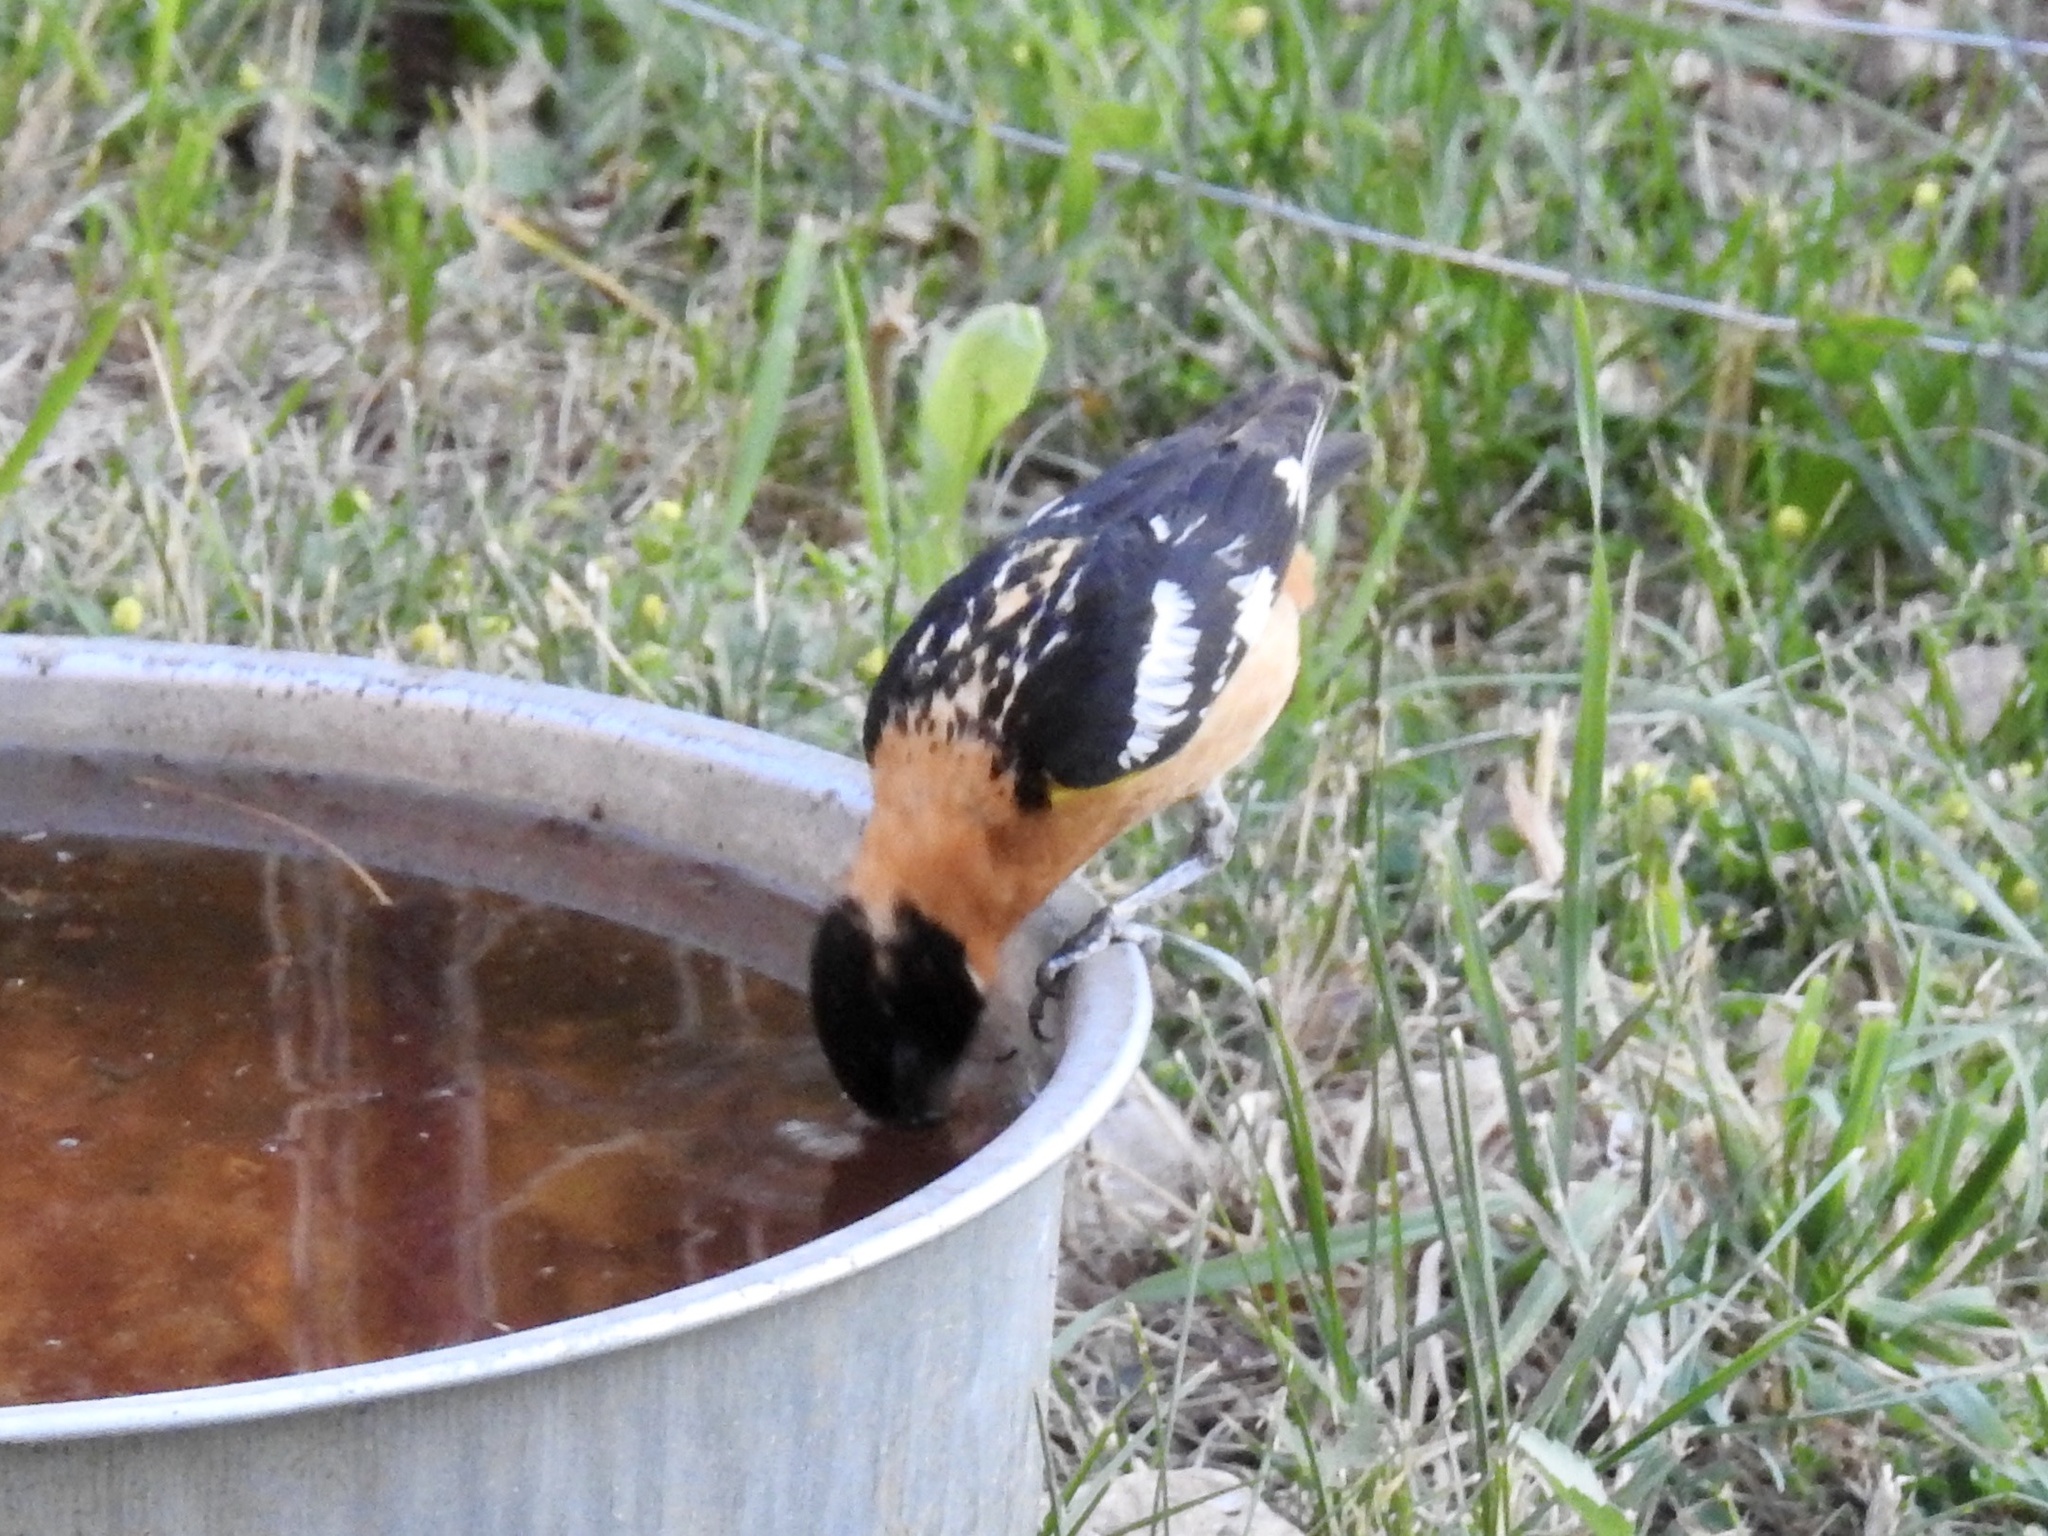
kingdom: Animalia
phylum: Chordata
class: Aves
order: Passeriformes
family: Cardinalidae
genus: Pheucticus
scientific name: Pheucticus melanocephalus
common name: Black-headed grosbeak
